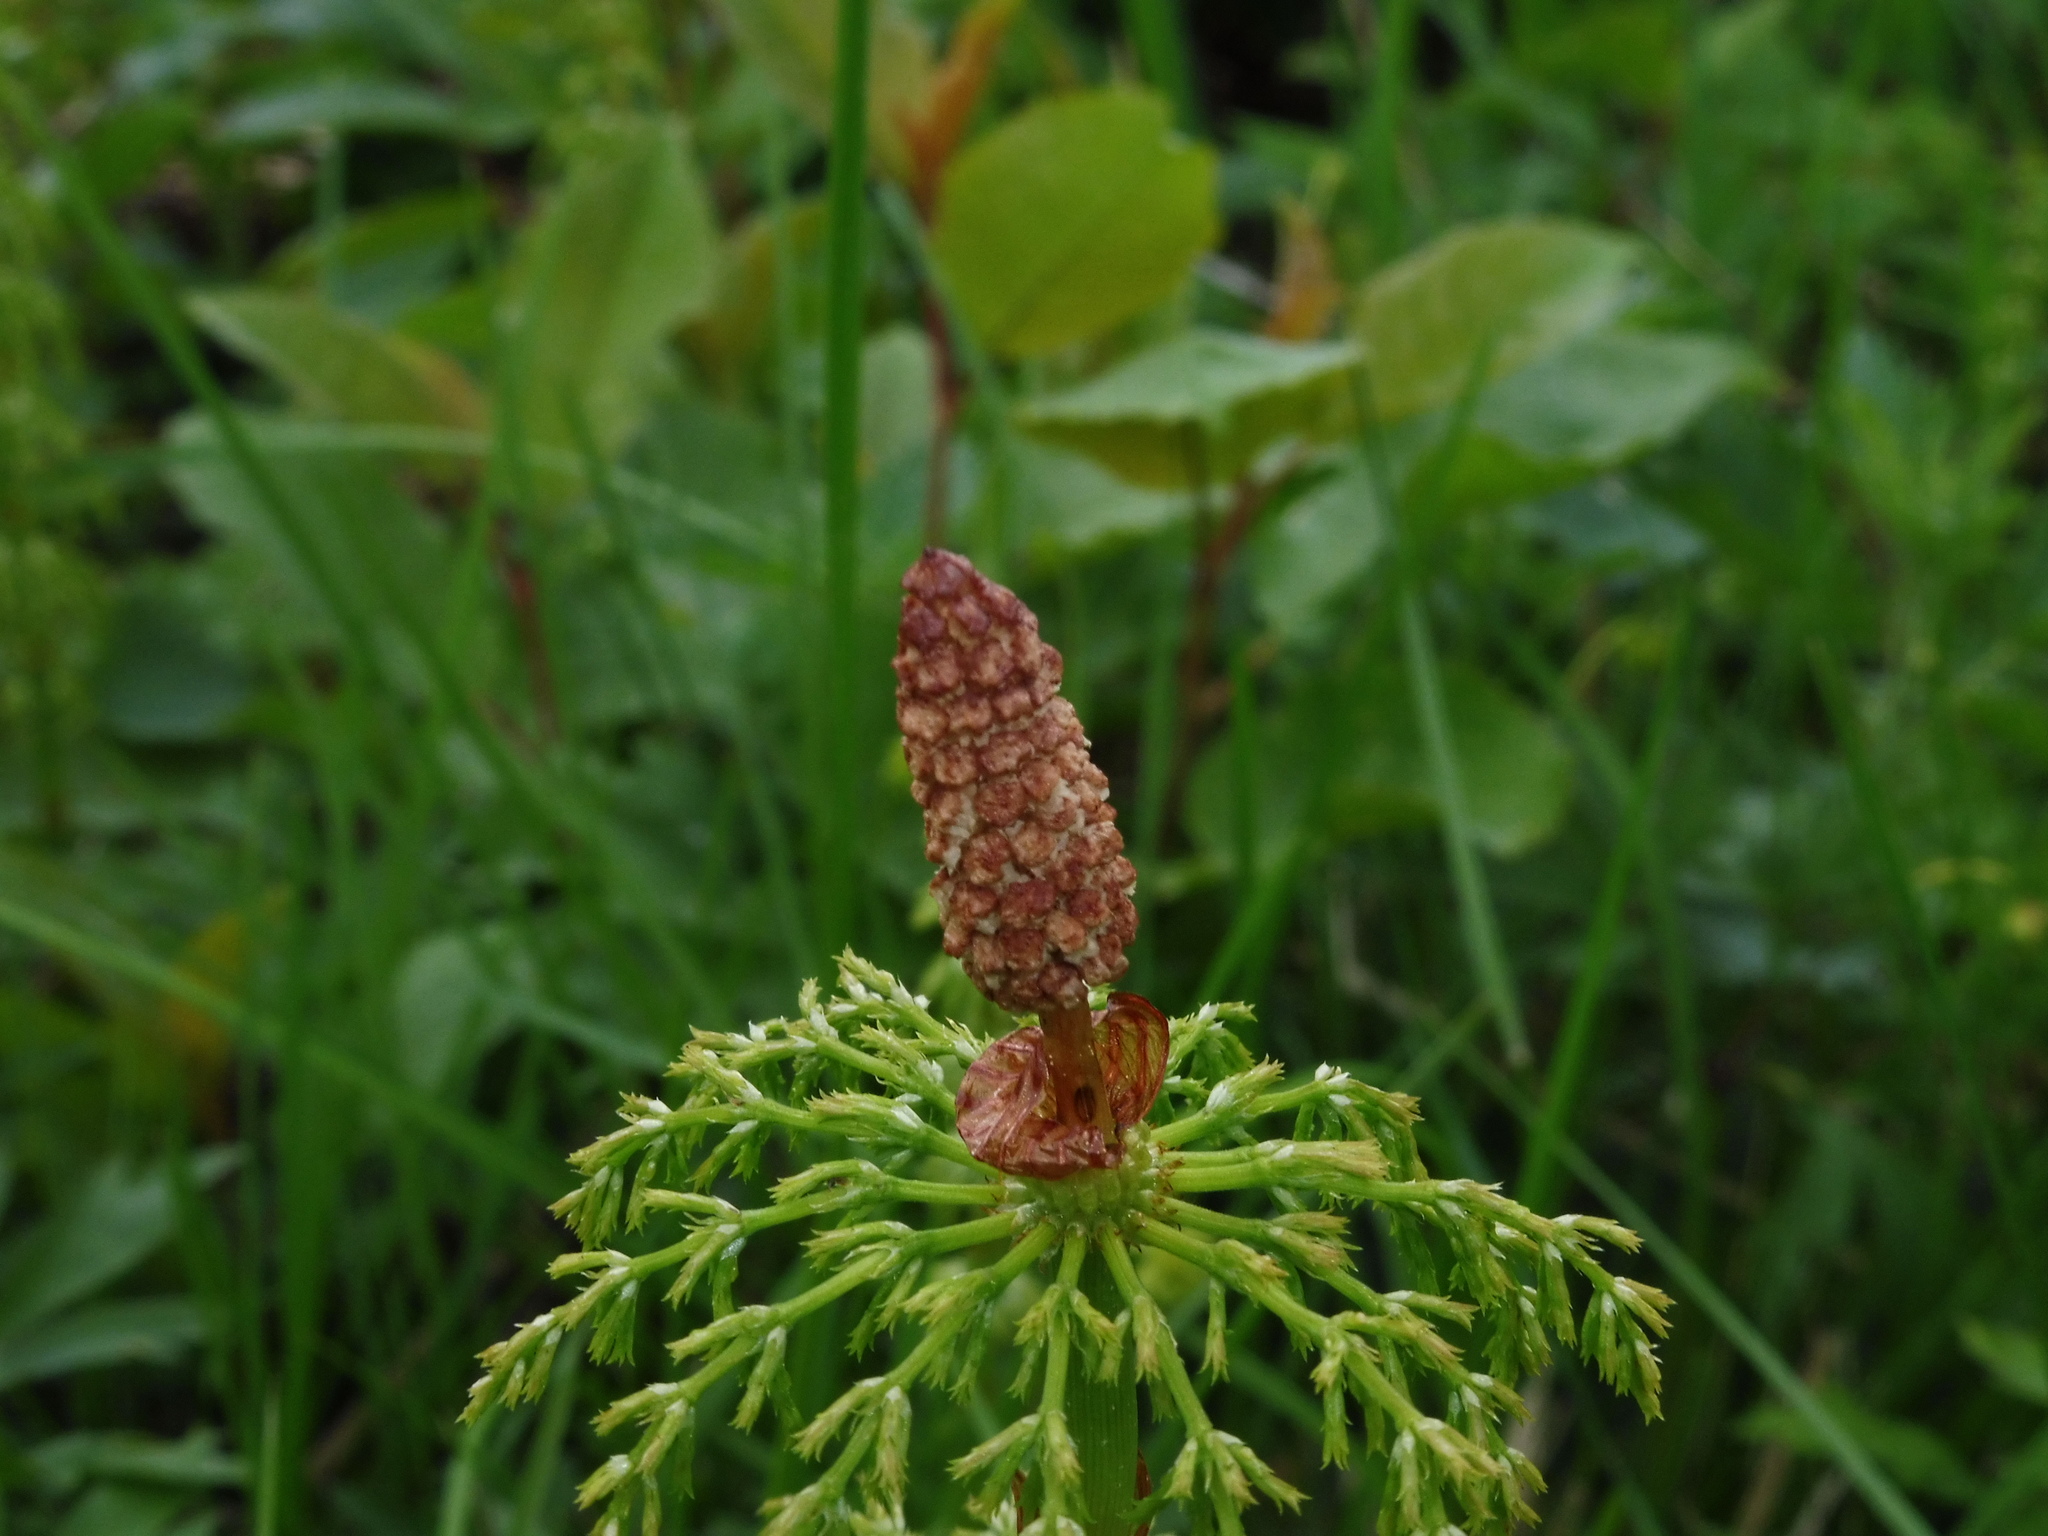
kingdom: Plantae
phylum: Tracheophyta
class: Polypodiopsida
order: Equisetales
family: Equisetaceae
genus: Equisetum
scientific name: Equisetum sylvaticum
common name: Wood horsetail
